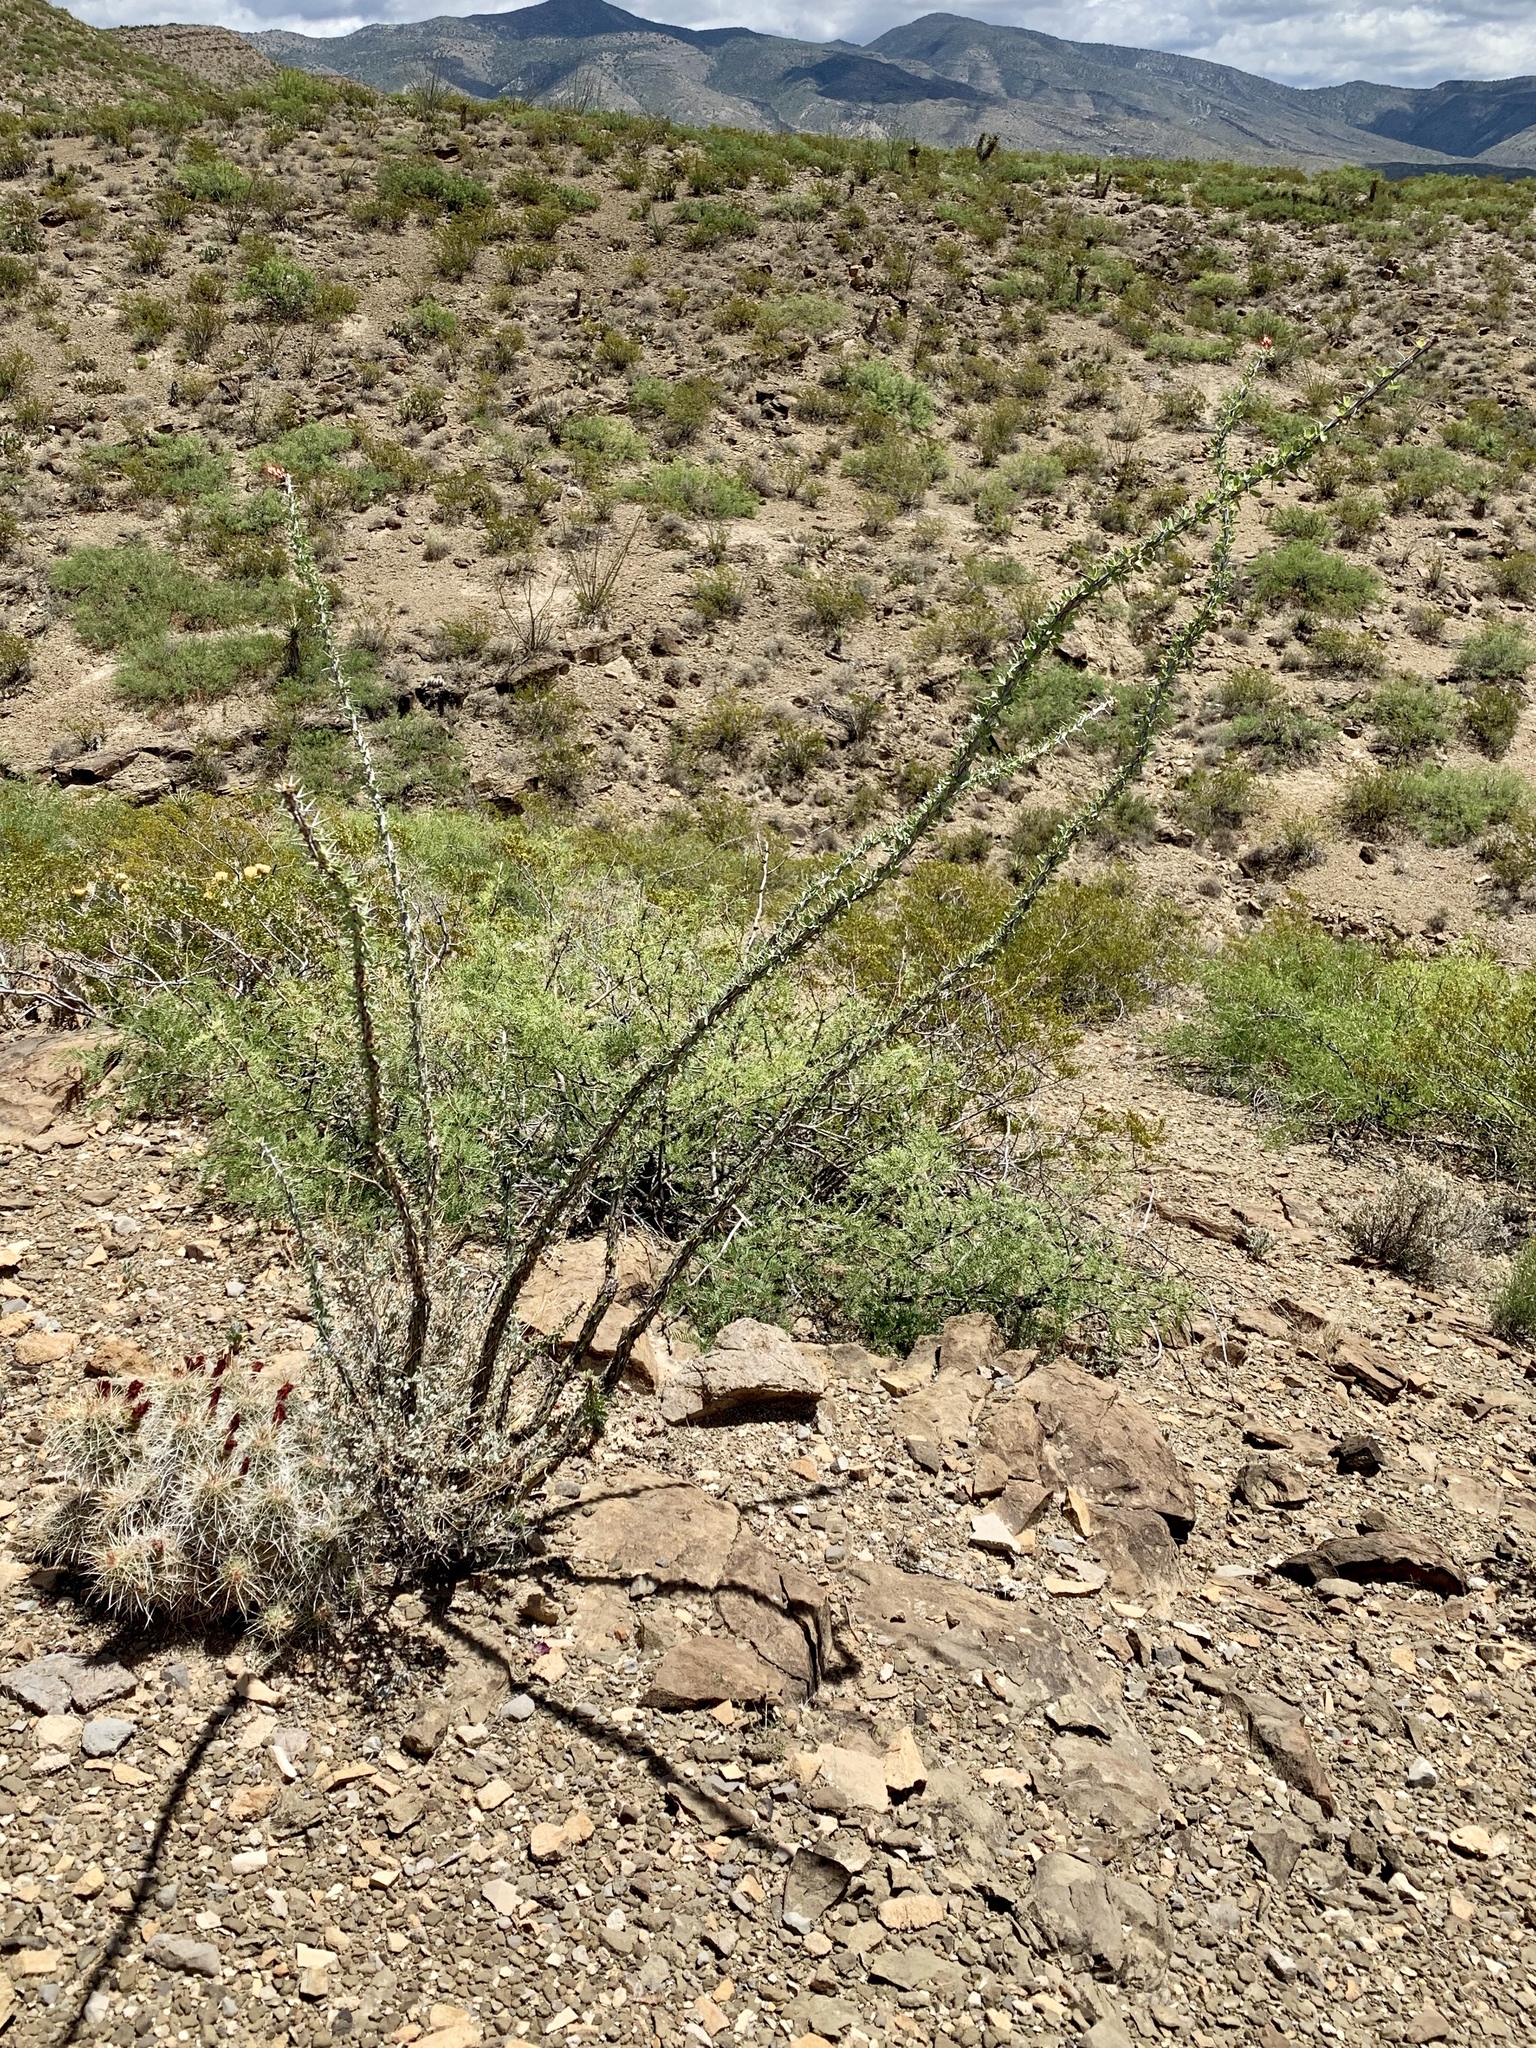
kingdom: Plantae
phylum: Tracheophyta
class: Magnoliopsida
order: Ericales
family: Fouquieriaceae
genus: Fouquieria
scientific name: Fouquieria splendens
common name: Vine-cactus
